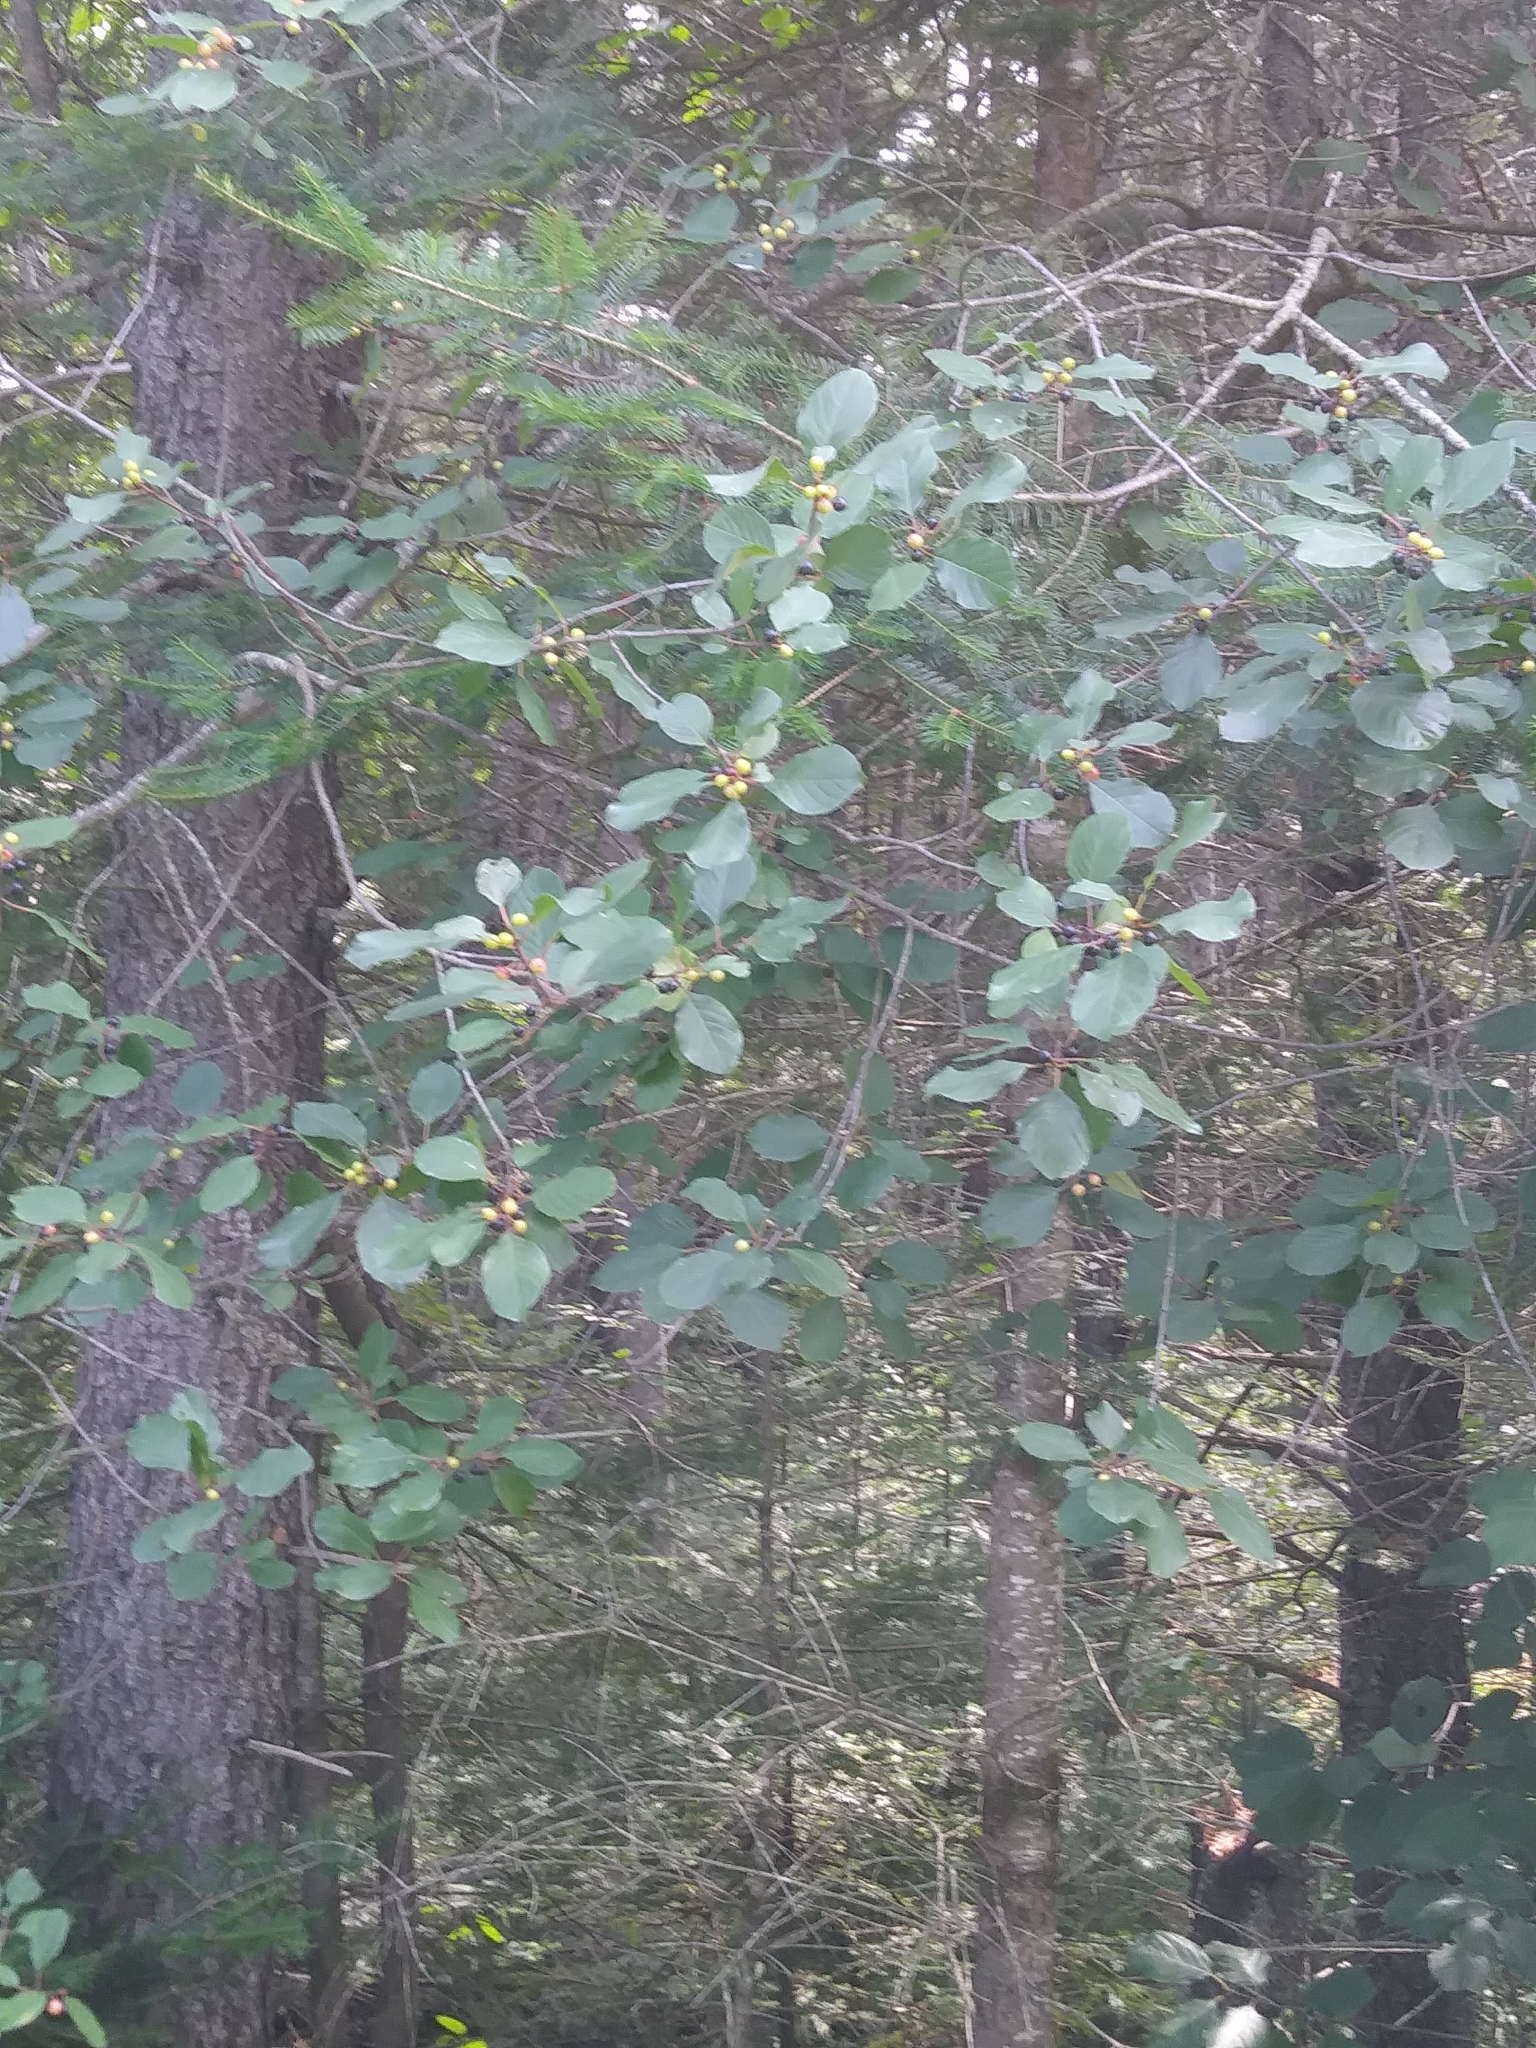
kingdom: Plantae
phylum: Tracheophyta
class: Magnoliopsida
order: Rosales
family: Rhamnaceae
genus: Frangula
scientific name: Frangula alnus
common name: Alder buckthorn
